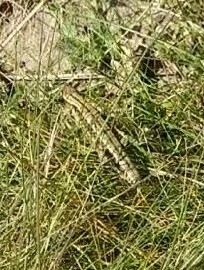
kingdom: Animalia
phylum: Chordata
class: Squamata
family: Lacertidae
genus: Zootoca
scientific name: Zootoca vivipara
